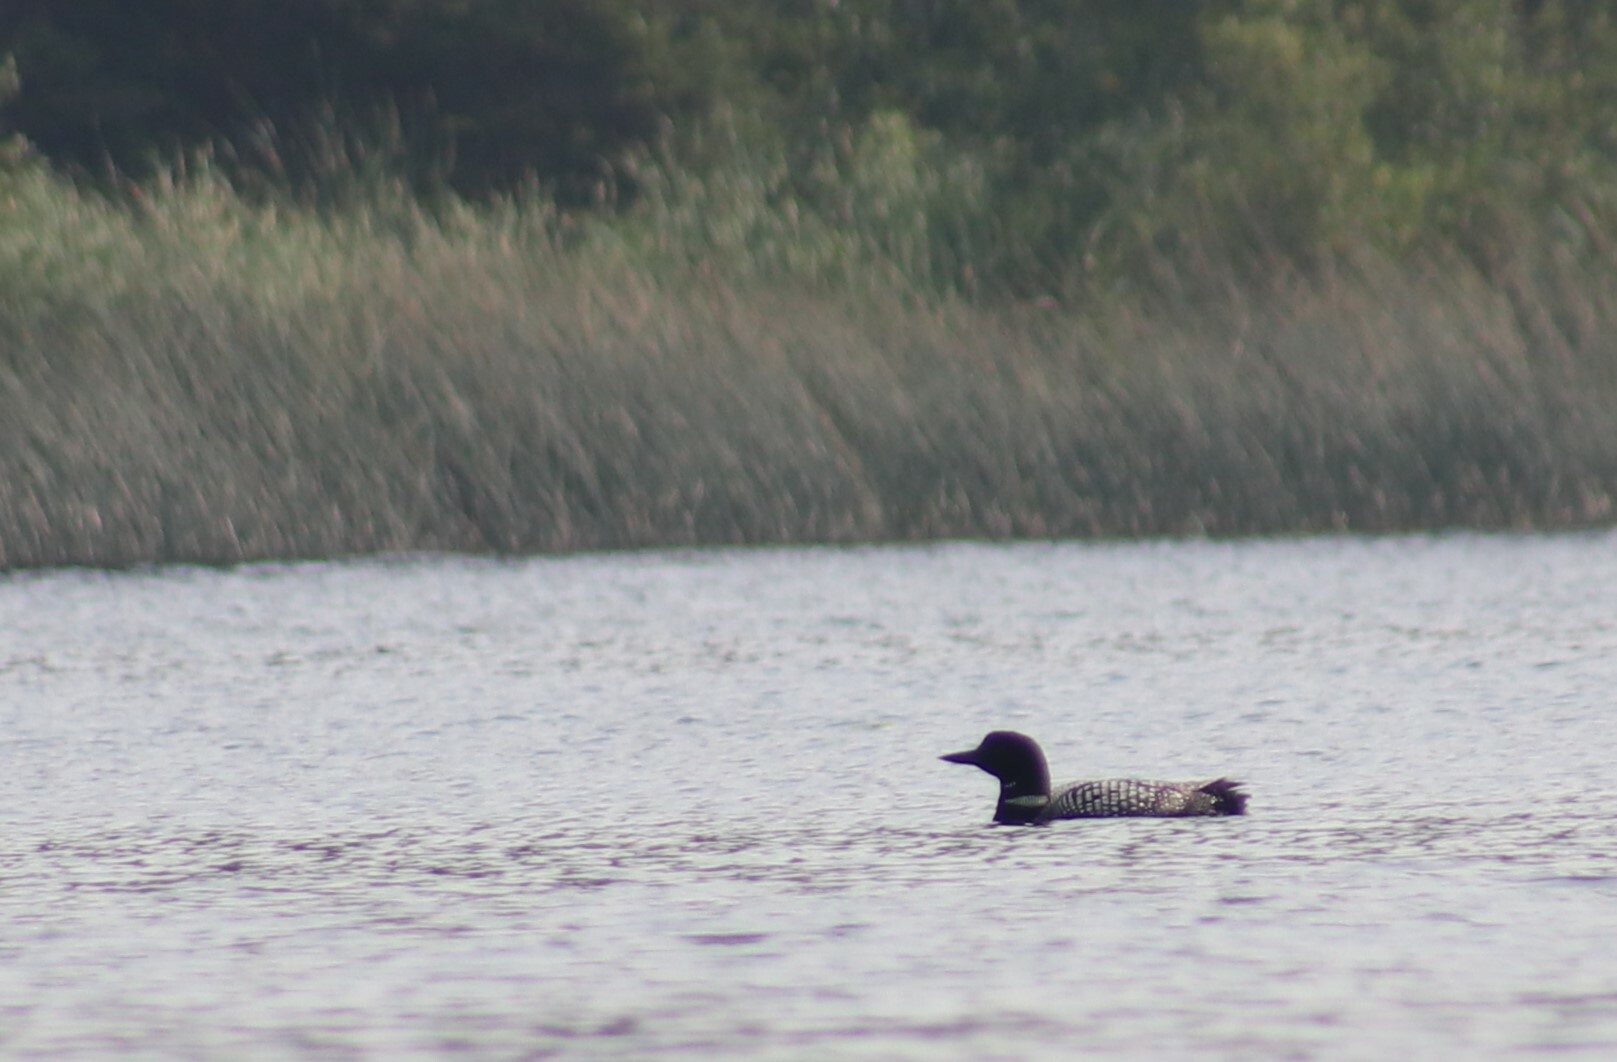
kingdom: Animalia
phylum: Chordata
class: Aves
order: Gaviiformes
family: Gaviidae
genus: Gavia
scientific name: Gavia immer
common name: Common loon
